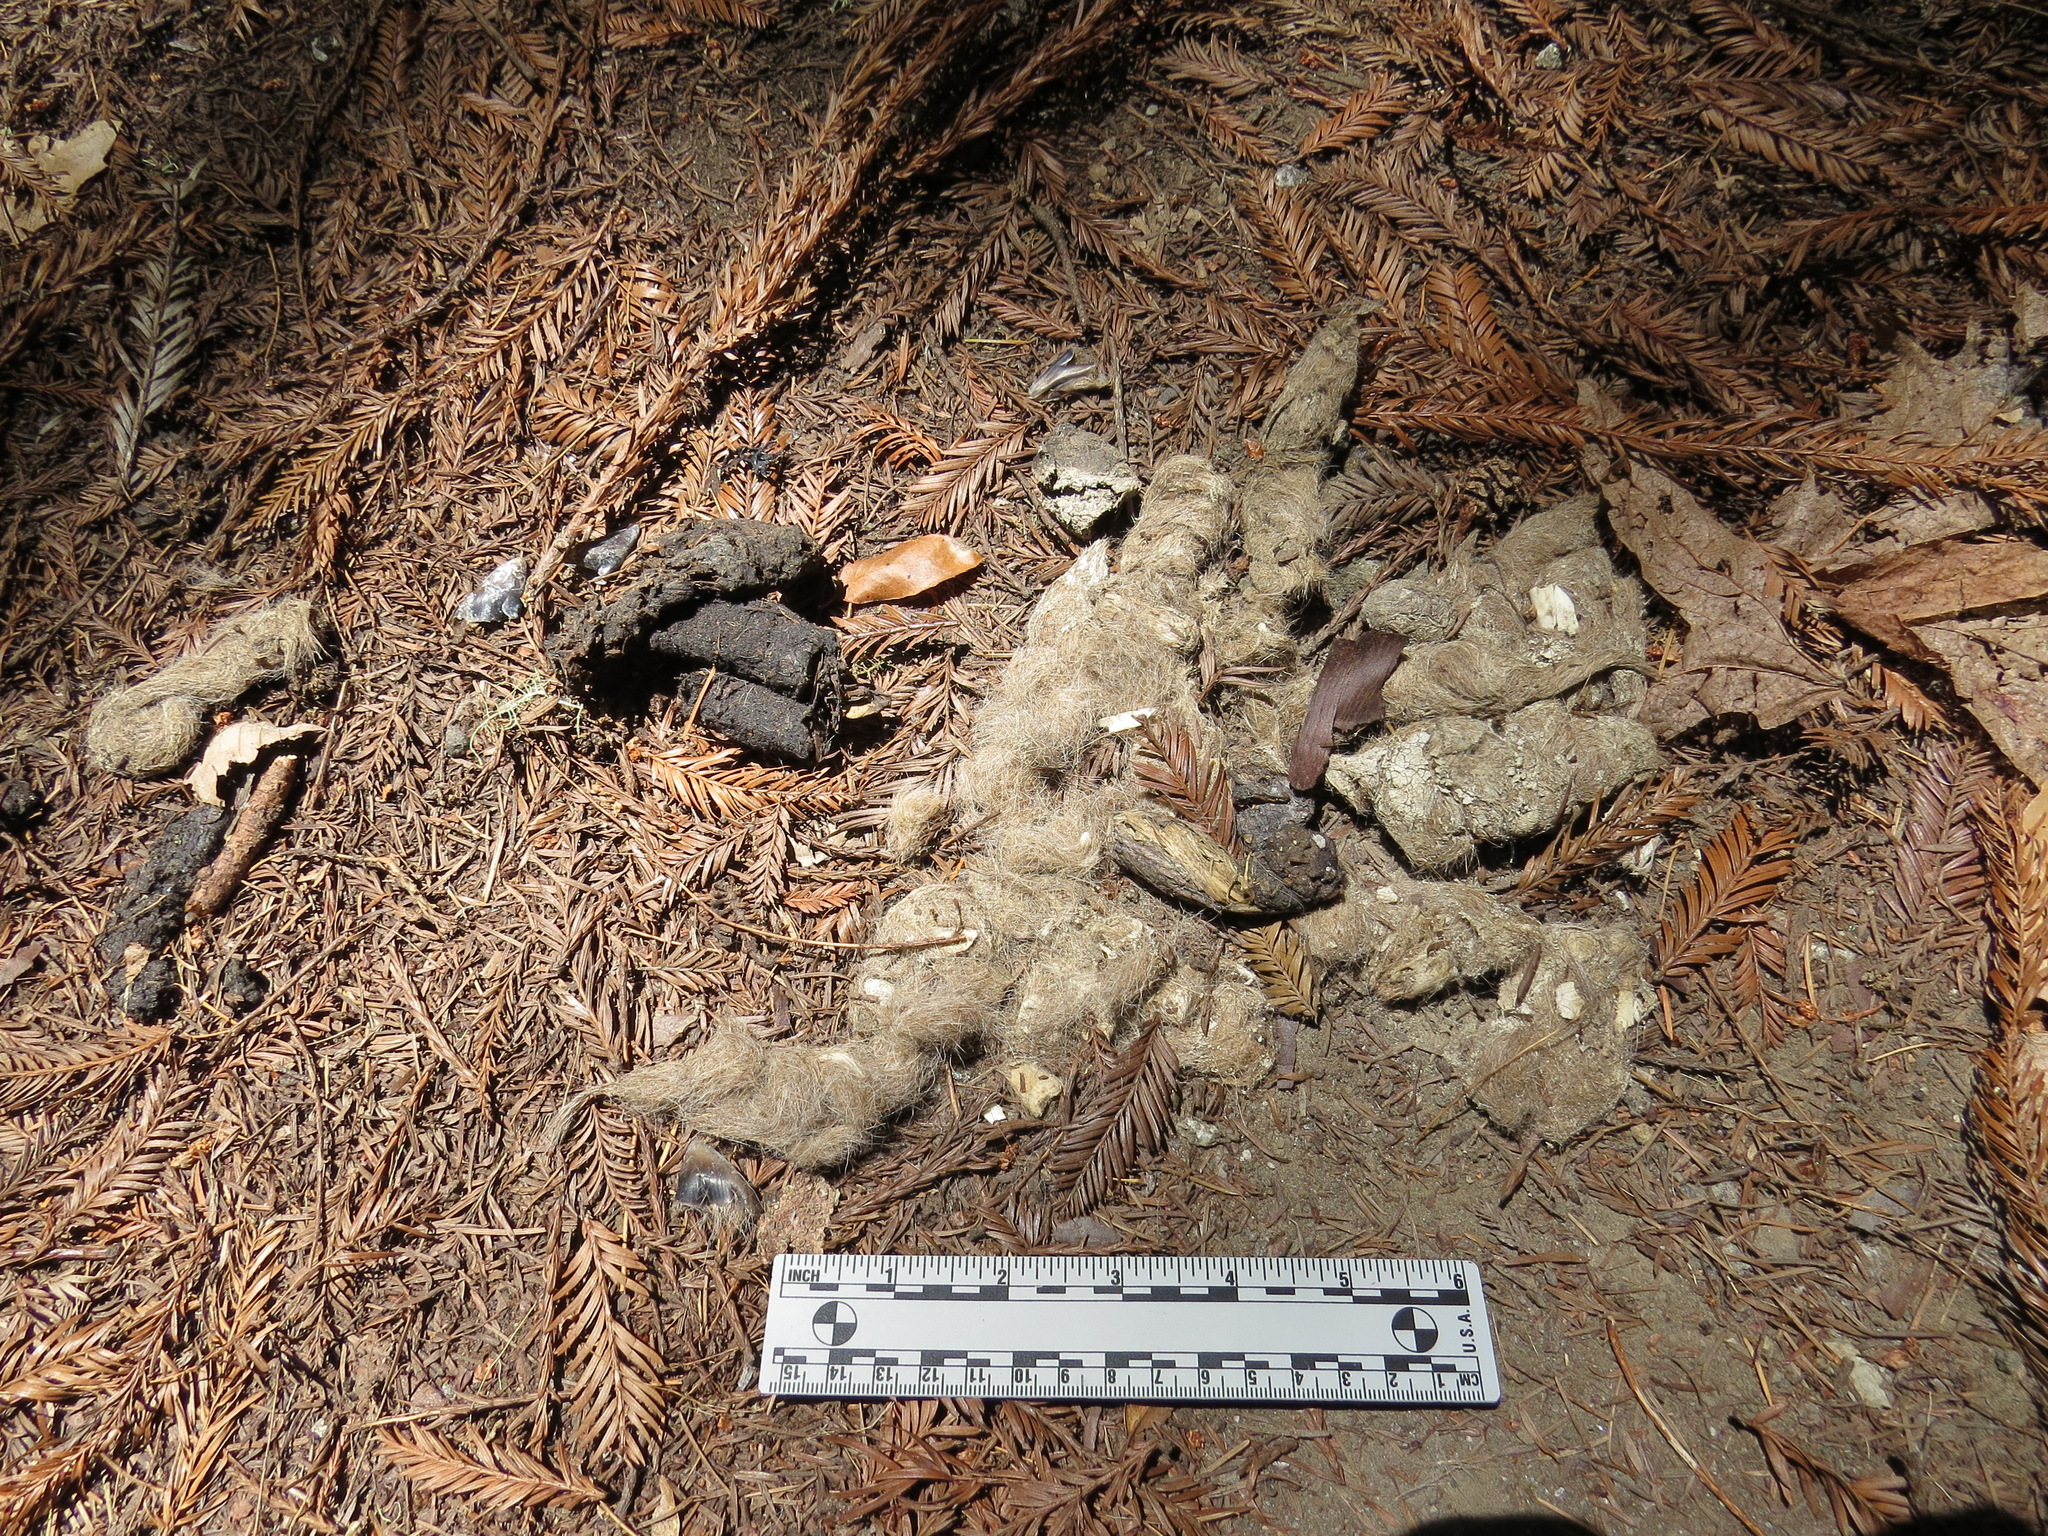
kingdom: Animalia
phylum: Chordata
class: Mammalia
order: Carnivora
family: Felidae
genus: Puma
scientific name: Puma concolor
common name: Puma
